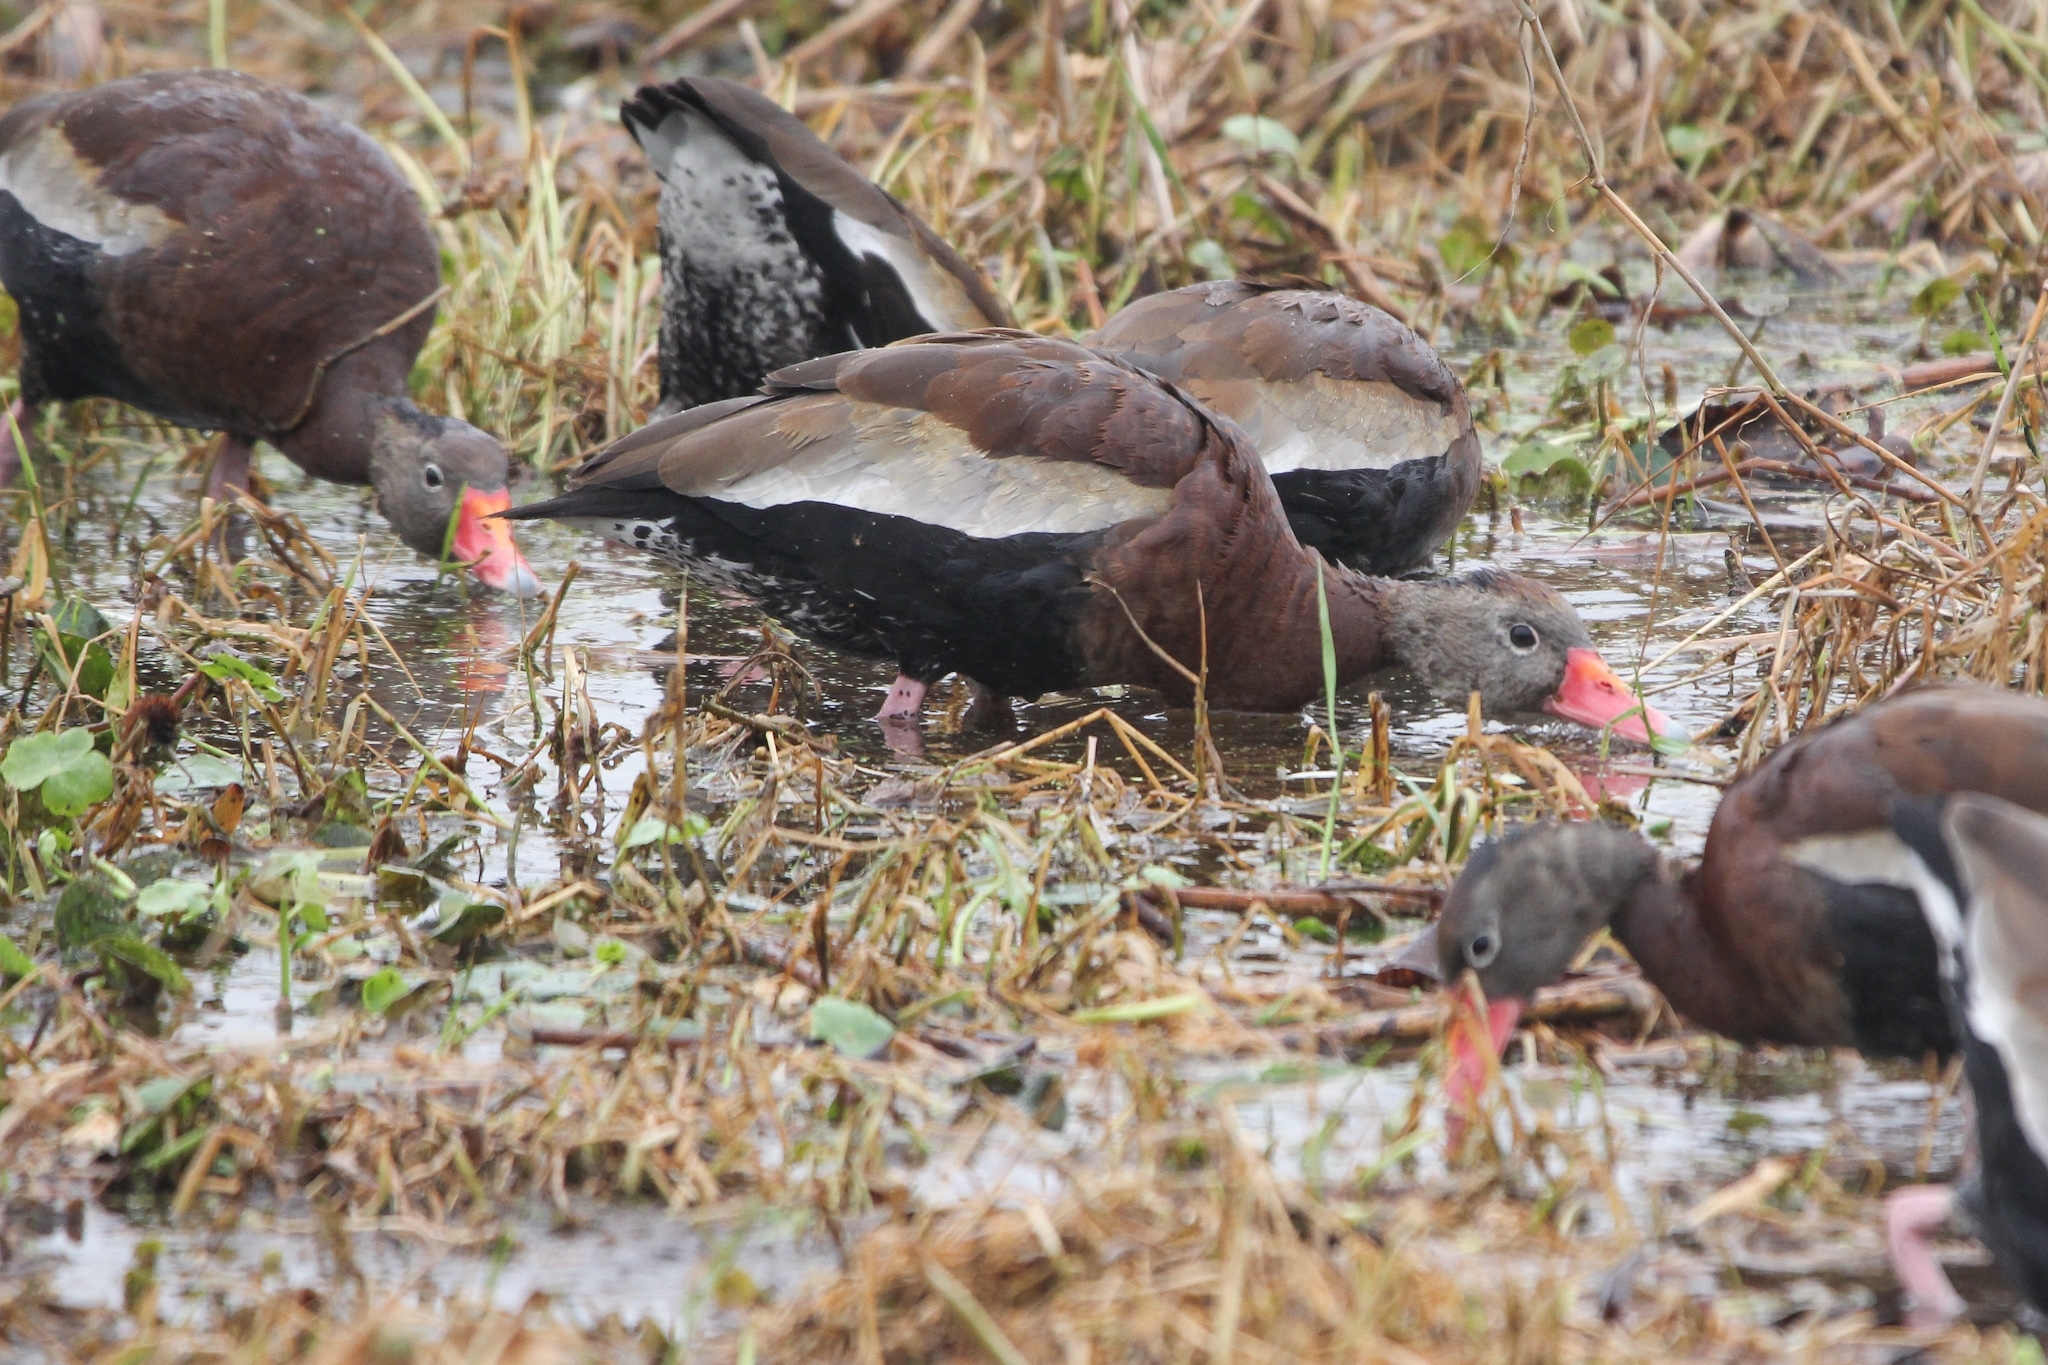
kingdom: Animalia
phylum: Chordata
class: Aves
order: Anseriformes
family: Anatidae
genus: Dendrocygna
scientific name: Dendrocygna autumnalis
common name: Black-bellied whistling duck
